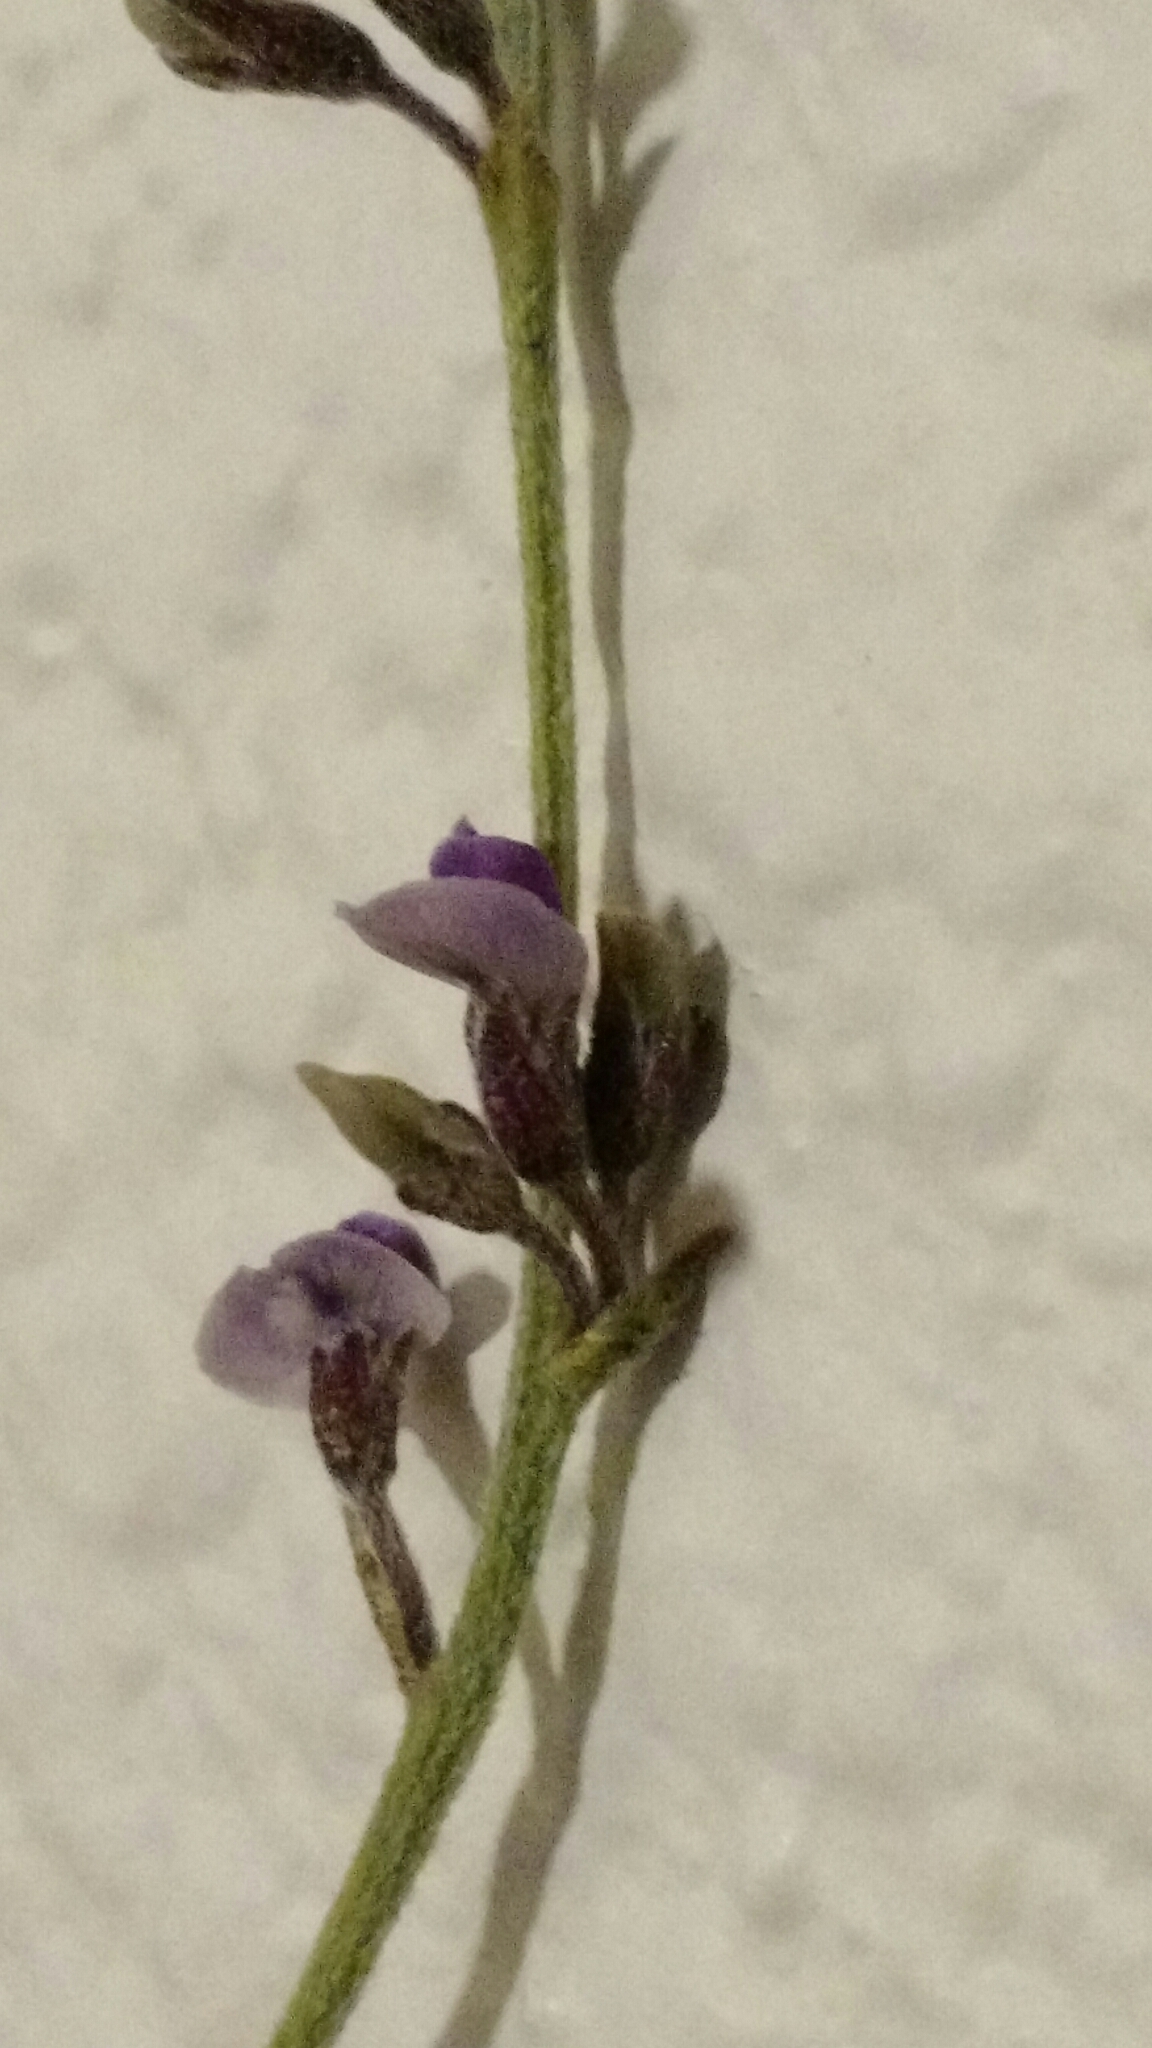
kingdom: Plantae
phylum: Tracheophyta
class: Magnoliopsida
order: Fabales
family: Fabaceae
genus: Pediomelum
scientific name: Pediomelum tenuiflorum
